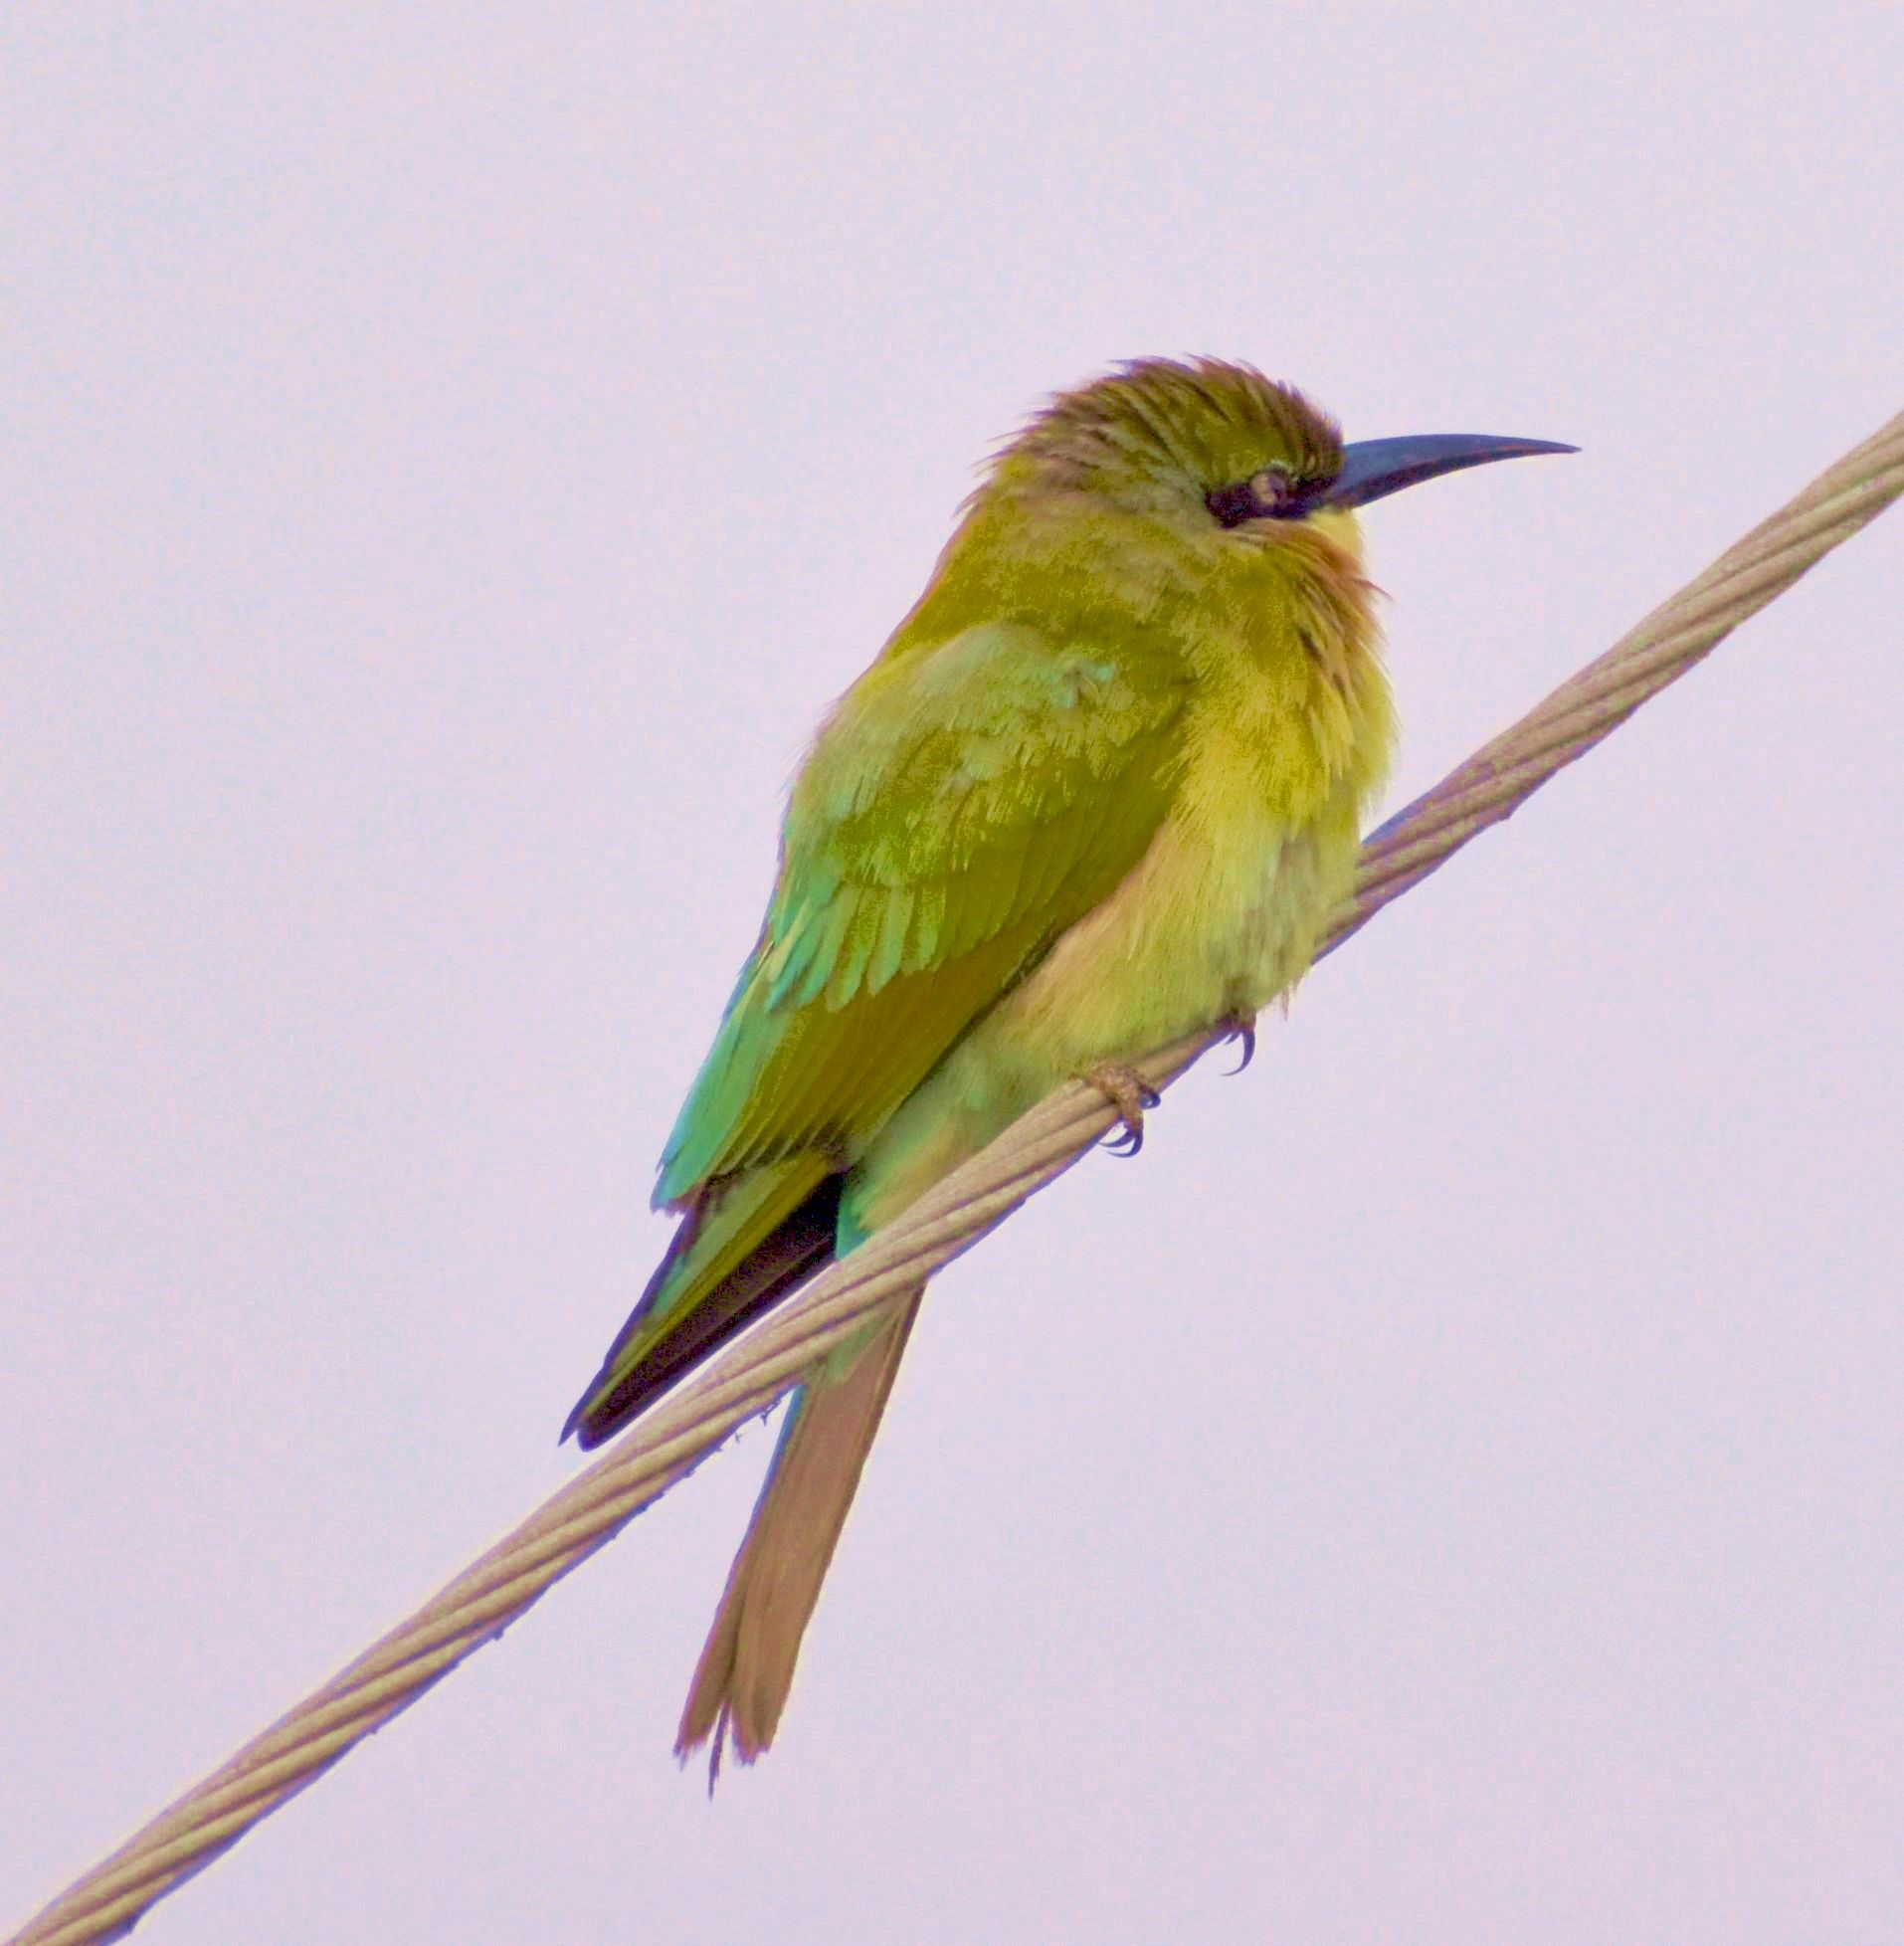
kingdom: Animalia
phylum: Chordata
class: Aves
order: Coraciiformes
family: Meropidae
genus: Merops
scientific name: Merops orientalis
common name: Green bee-eater
